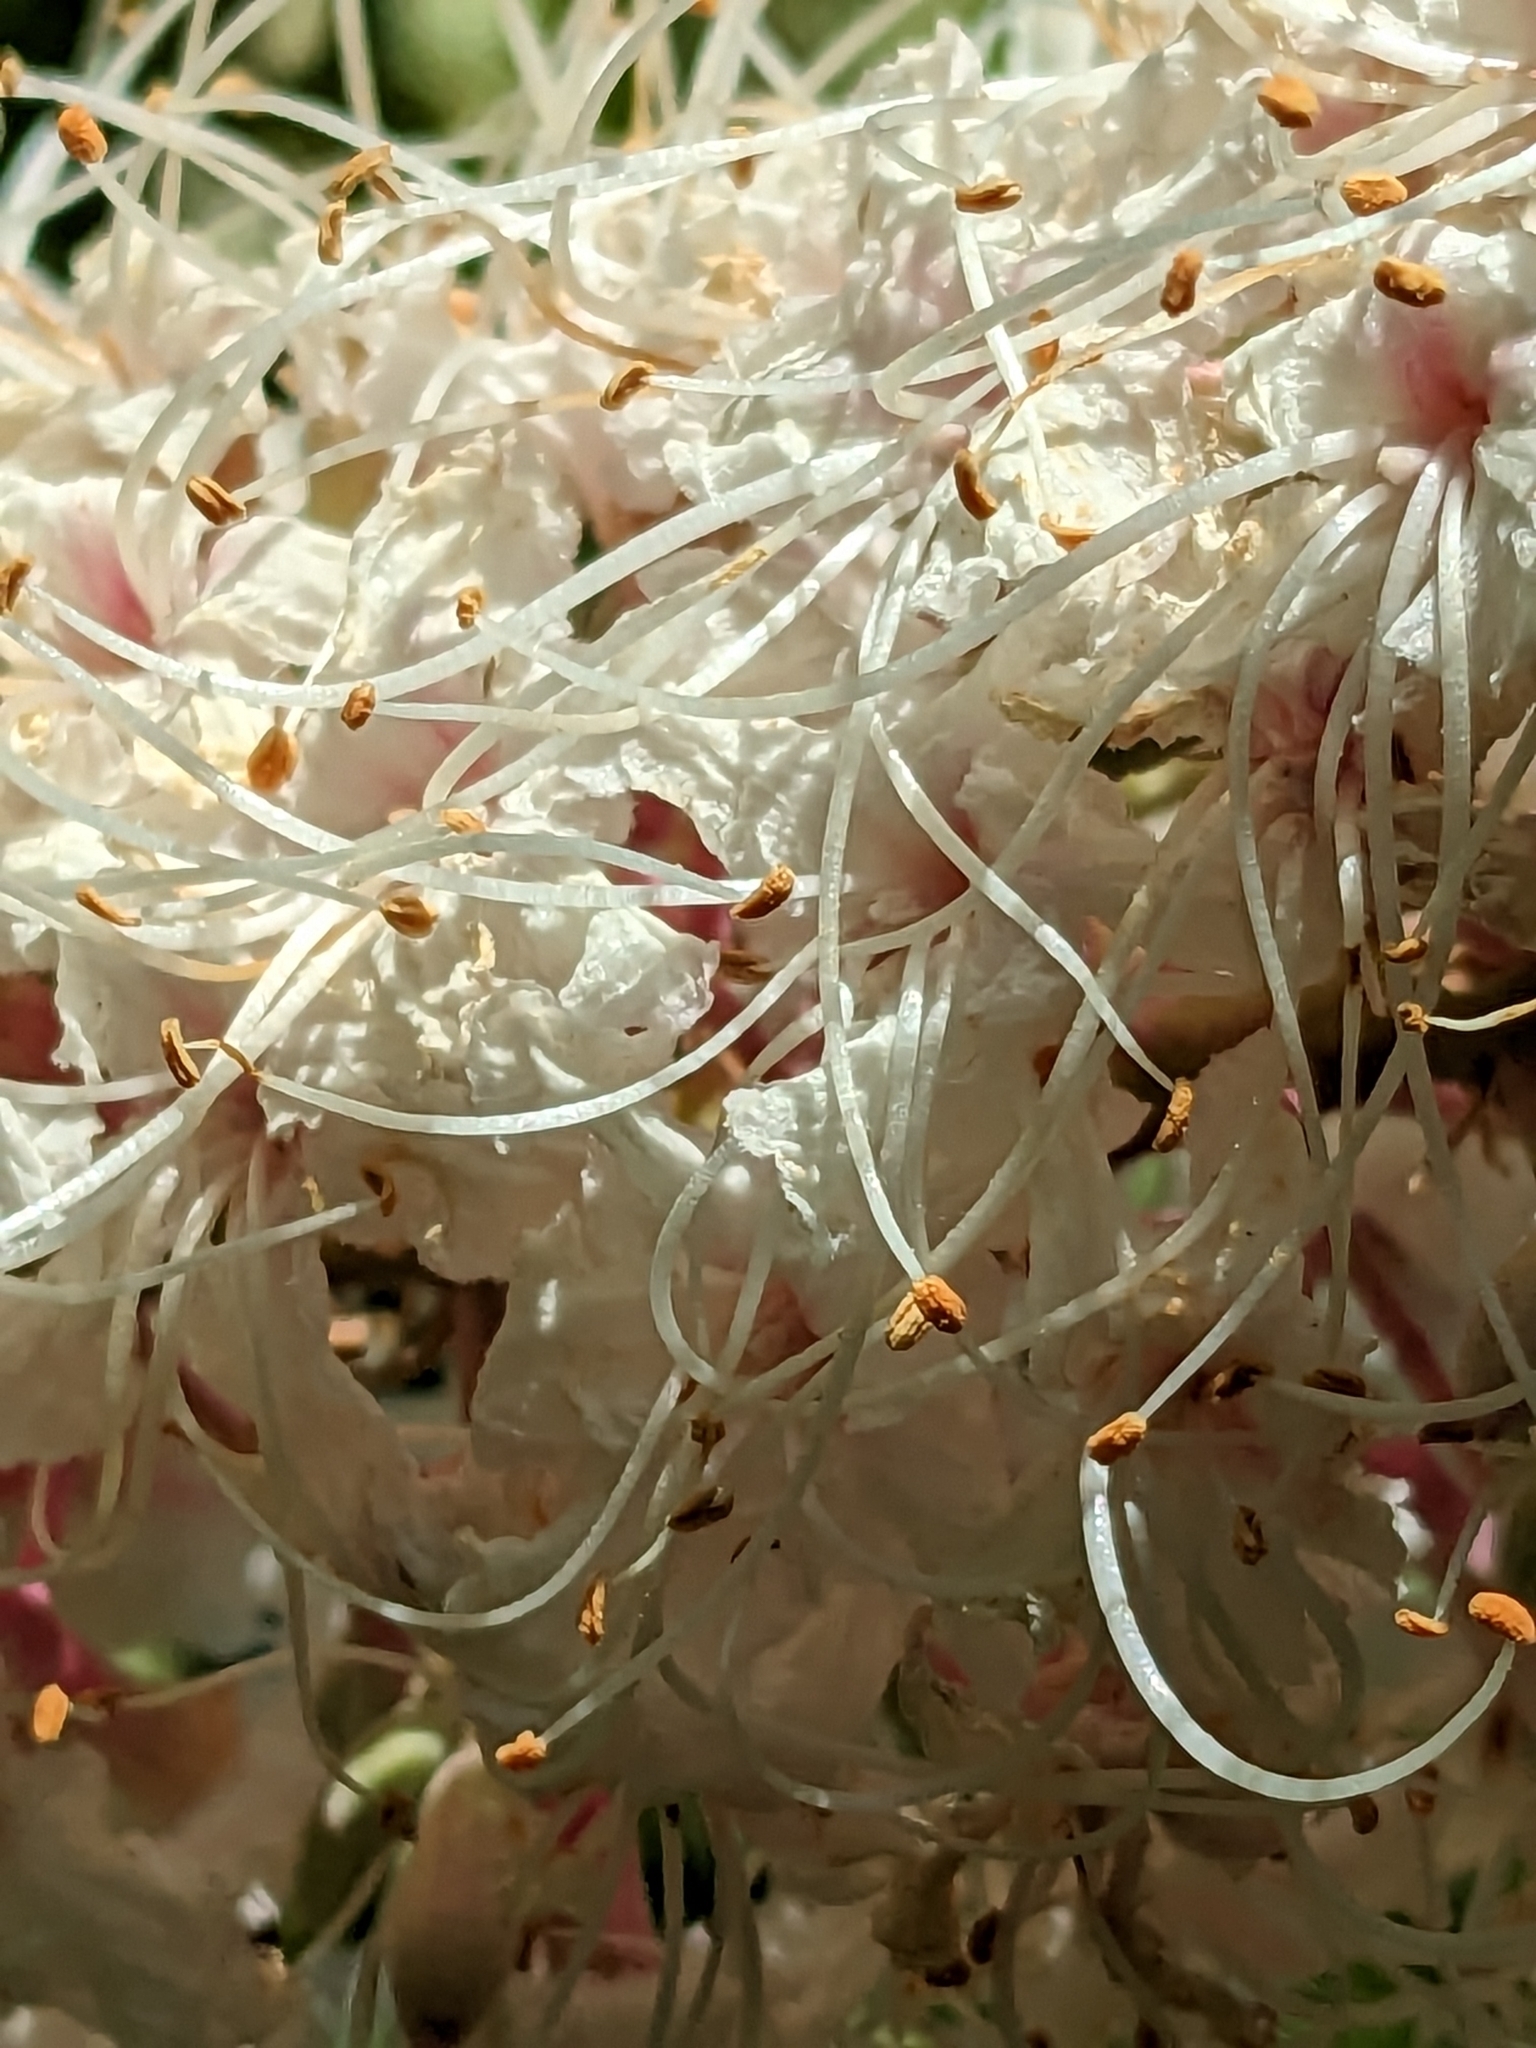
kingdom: Plantae
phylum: Tracheophyta
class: Magnoliopsida
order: Sapindales
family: Sapindaceae
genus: Aesculus
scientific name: Aesculus californica
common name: California buckeye
